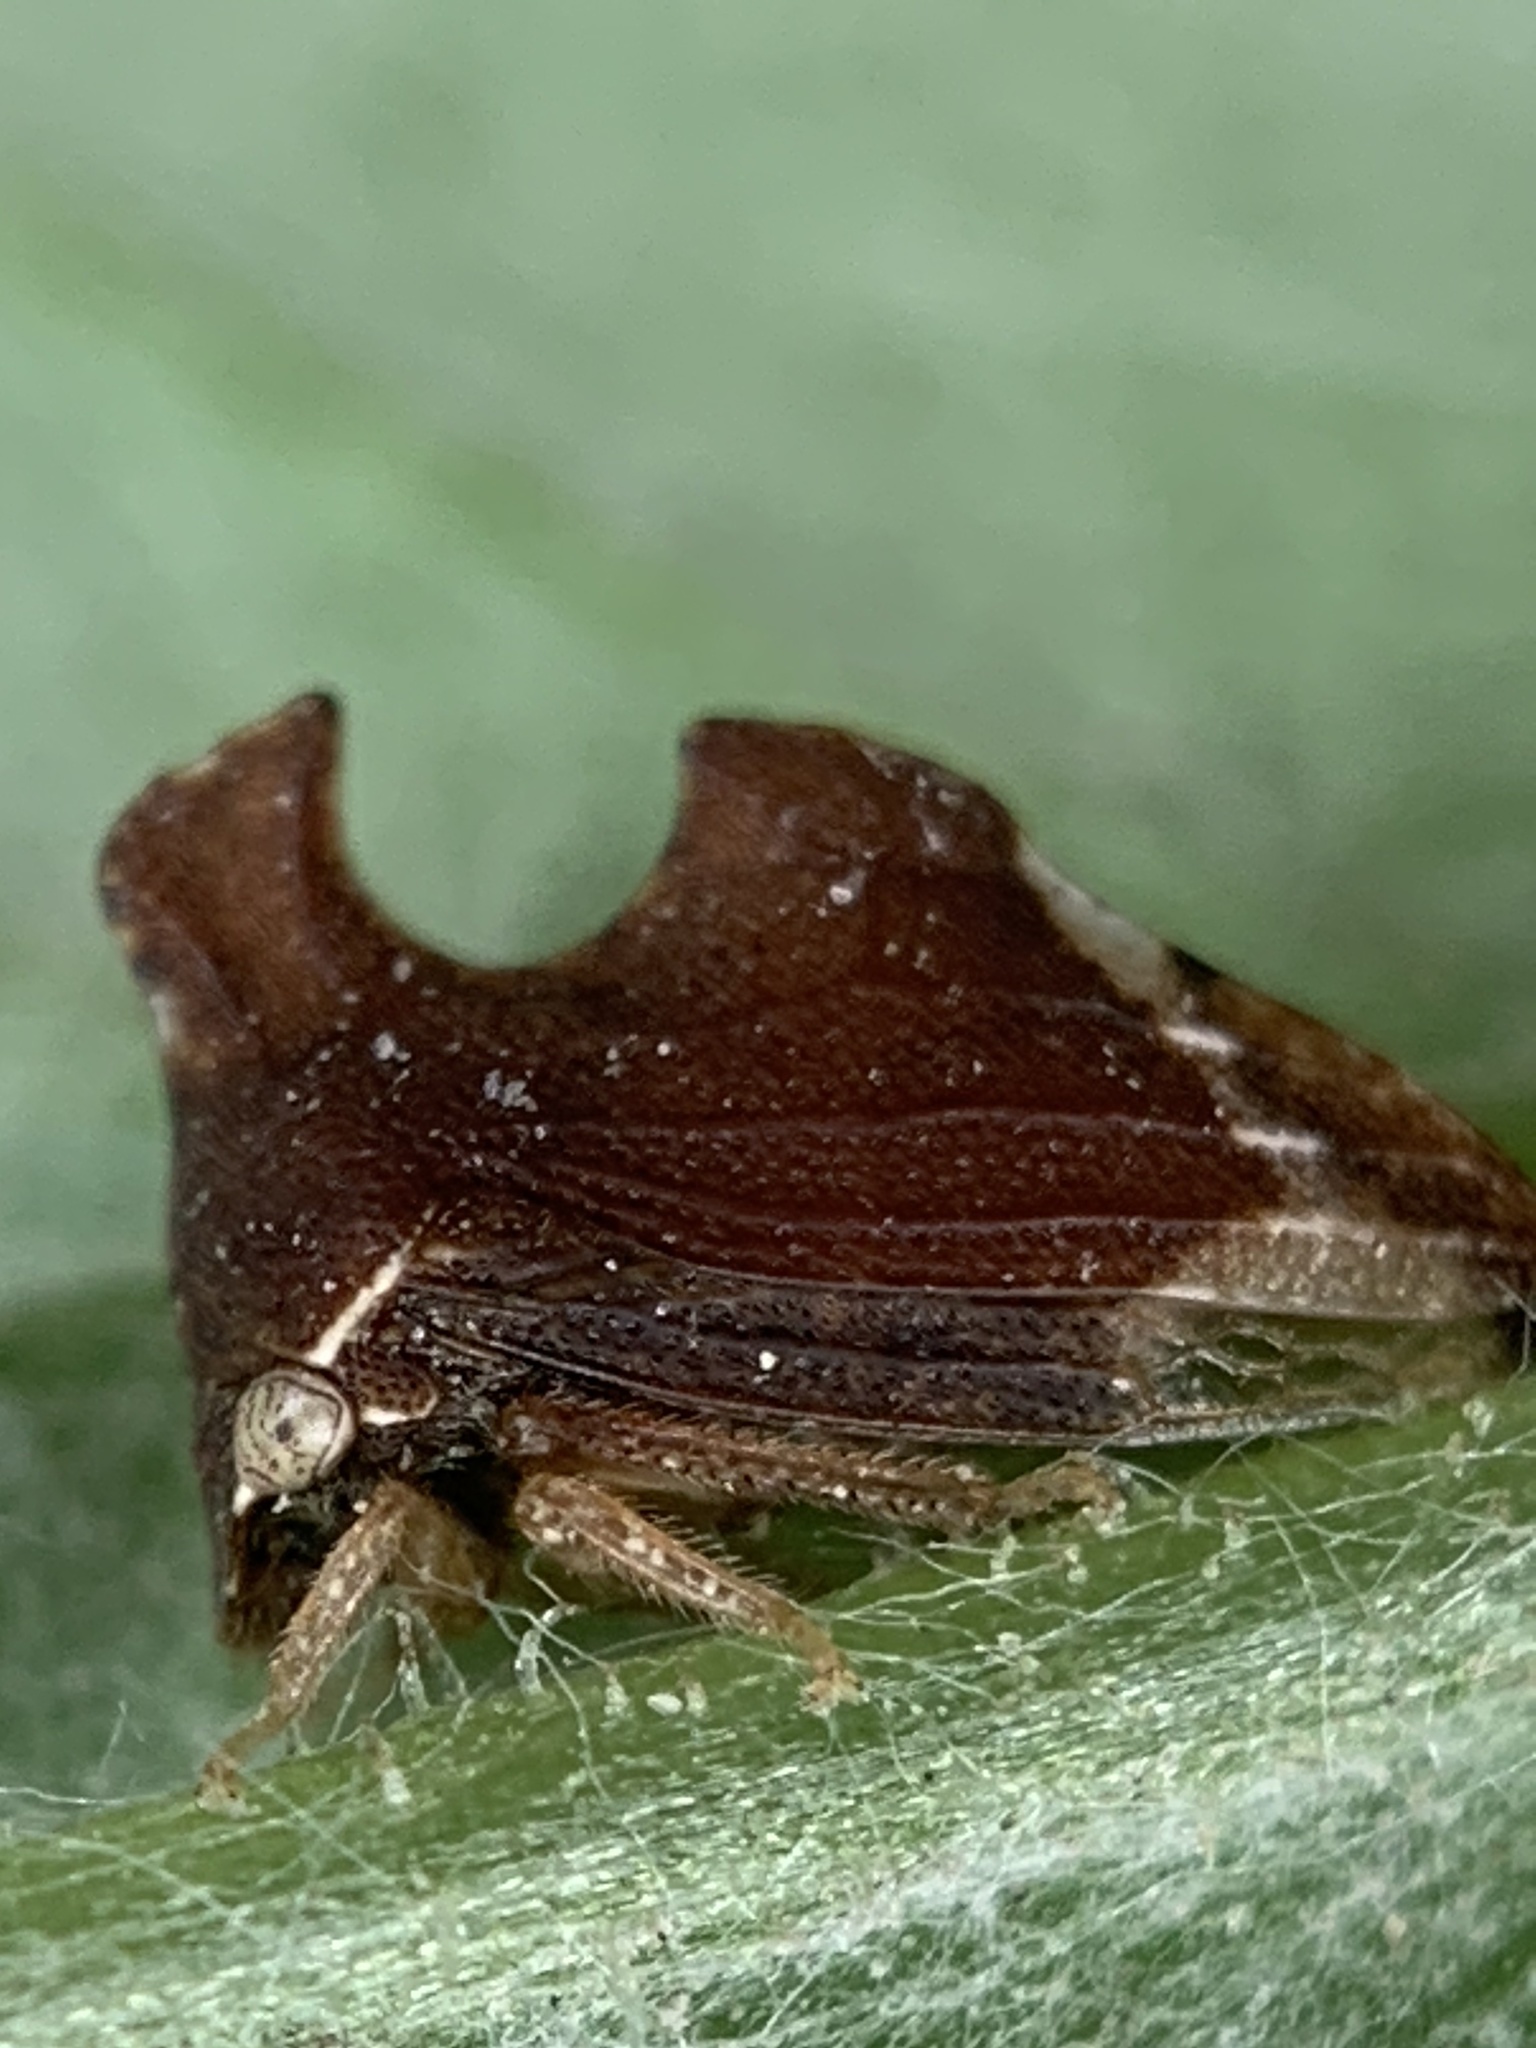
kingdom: Animalia
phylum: Arthropoda
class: Insecta
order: Hemiptera
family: Membracidae
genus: Entylia
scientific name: Entylia carinata
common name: Keeled treehopper
